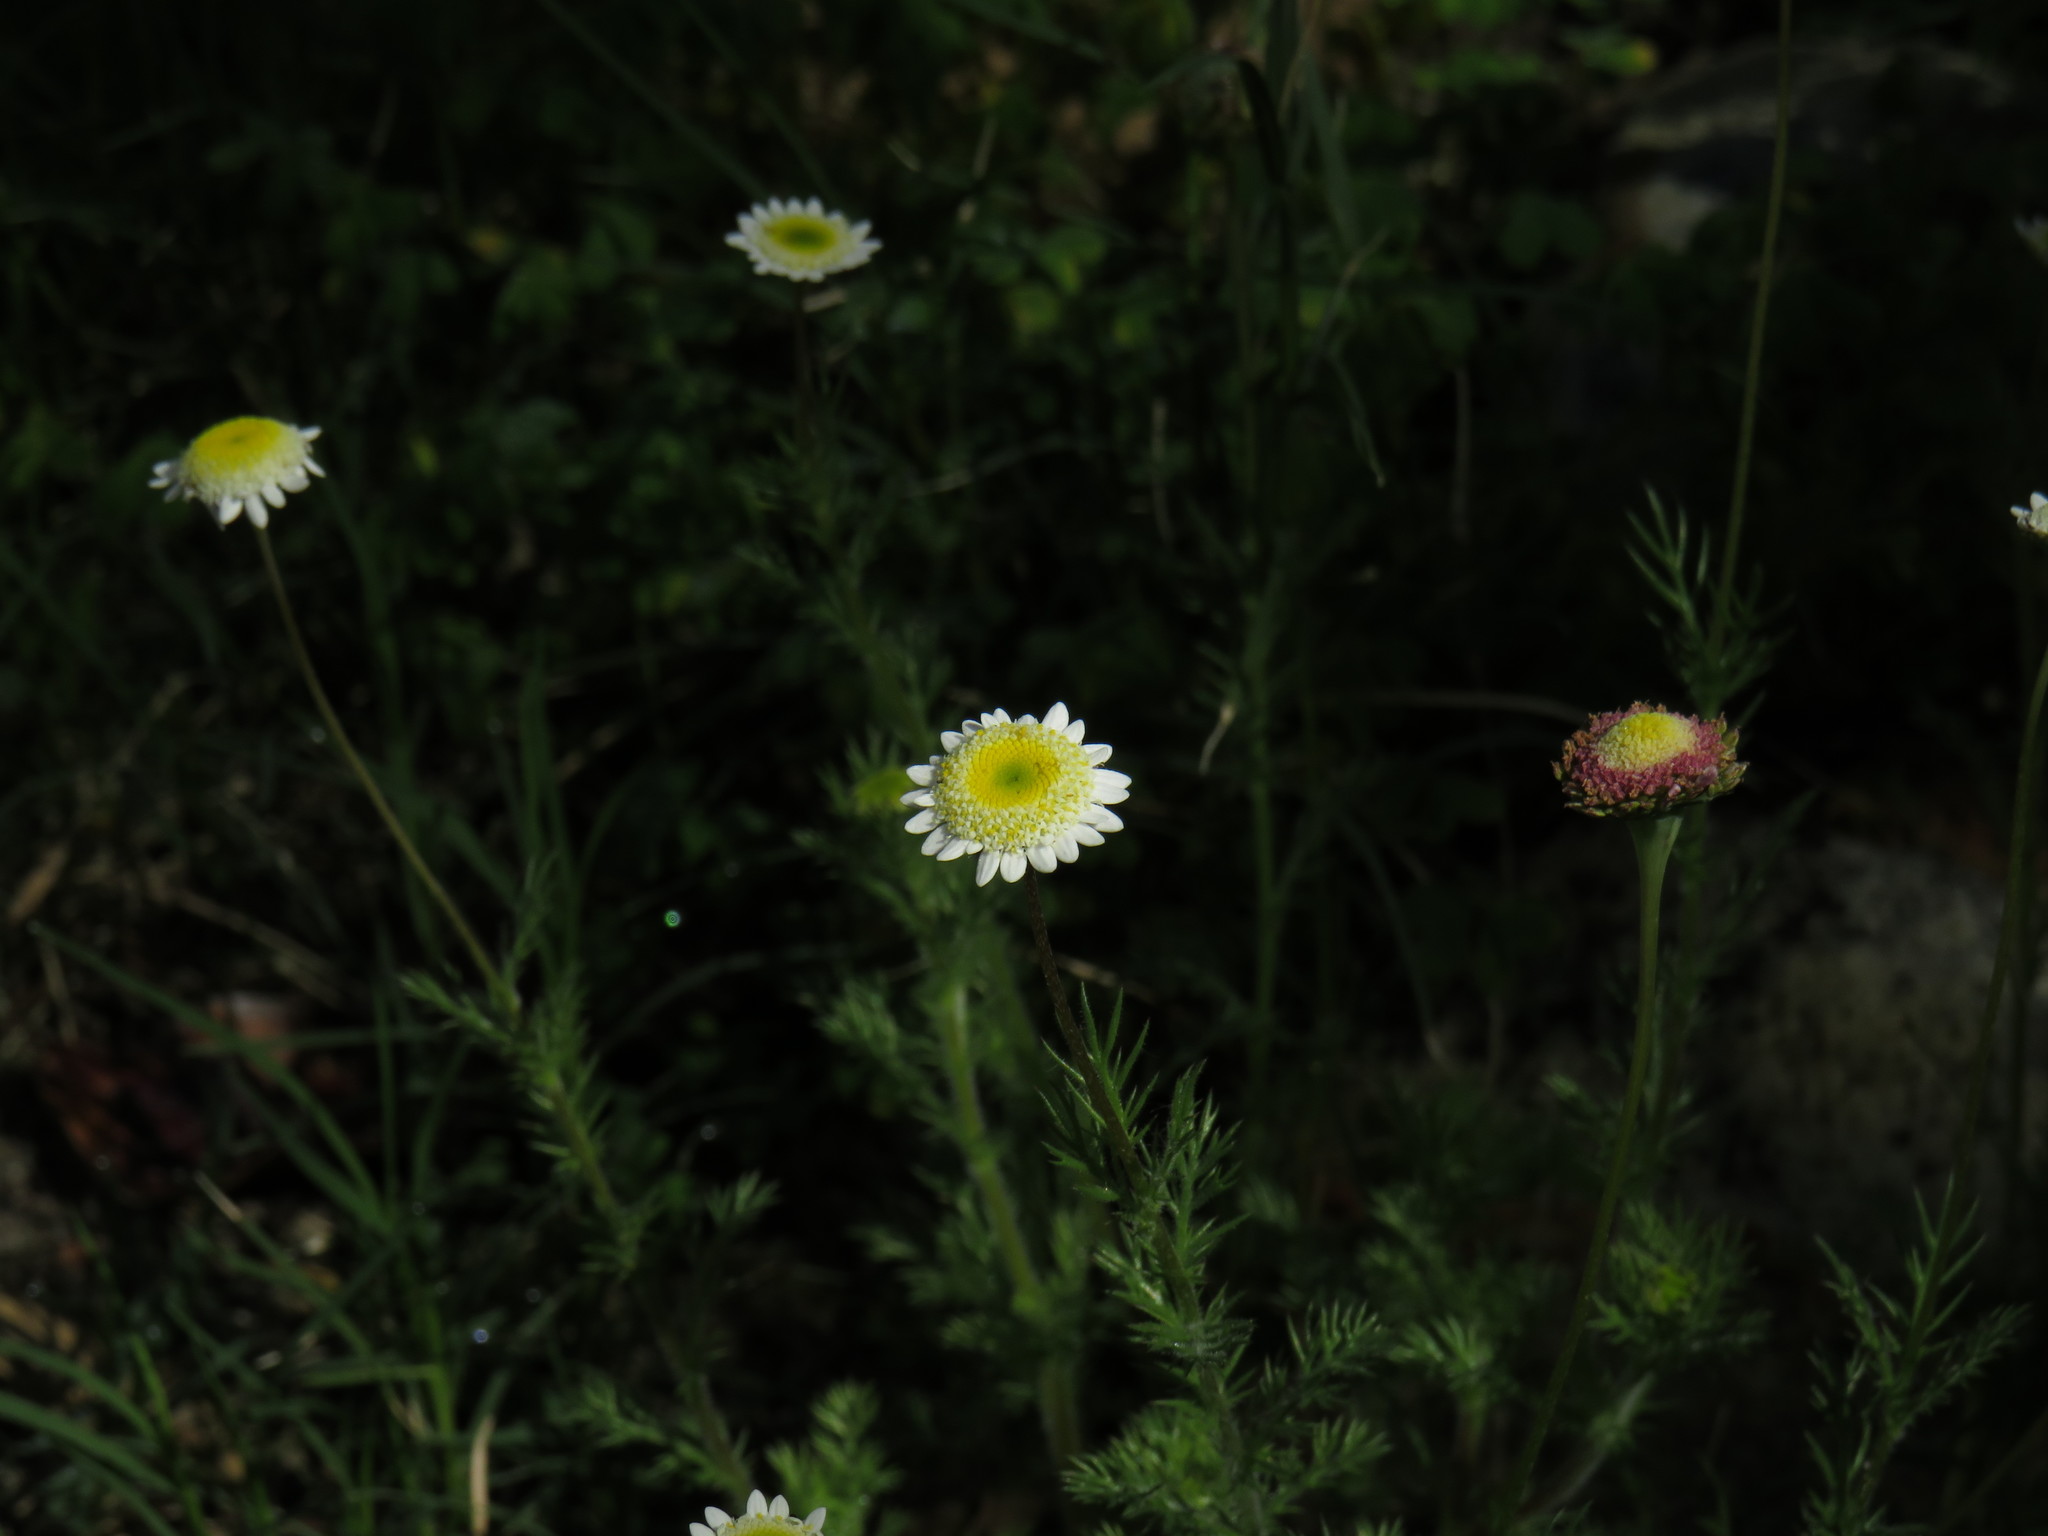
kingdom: Plantae
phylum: Tracheophyta
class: Magnoliopsida
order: Asterales
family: Asteraceae
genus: Cotula
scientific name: Cotula turbinata
